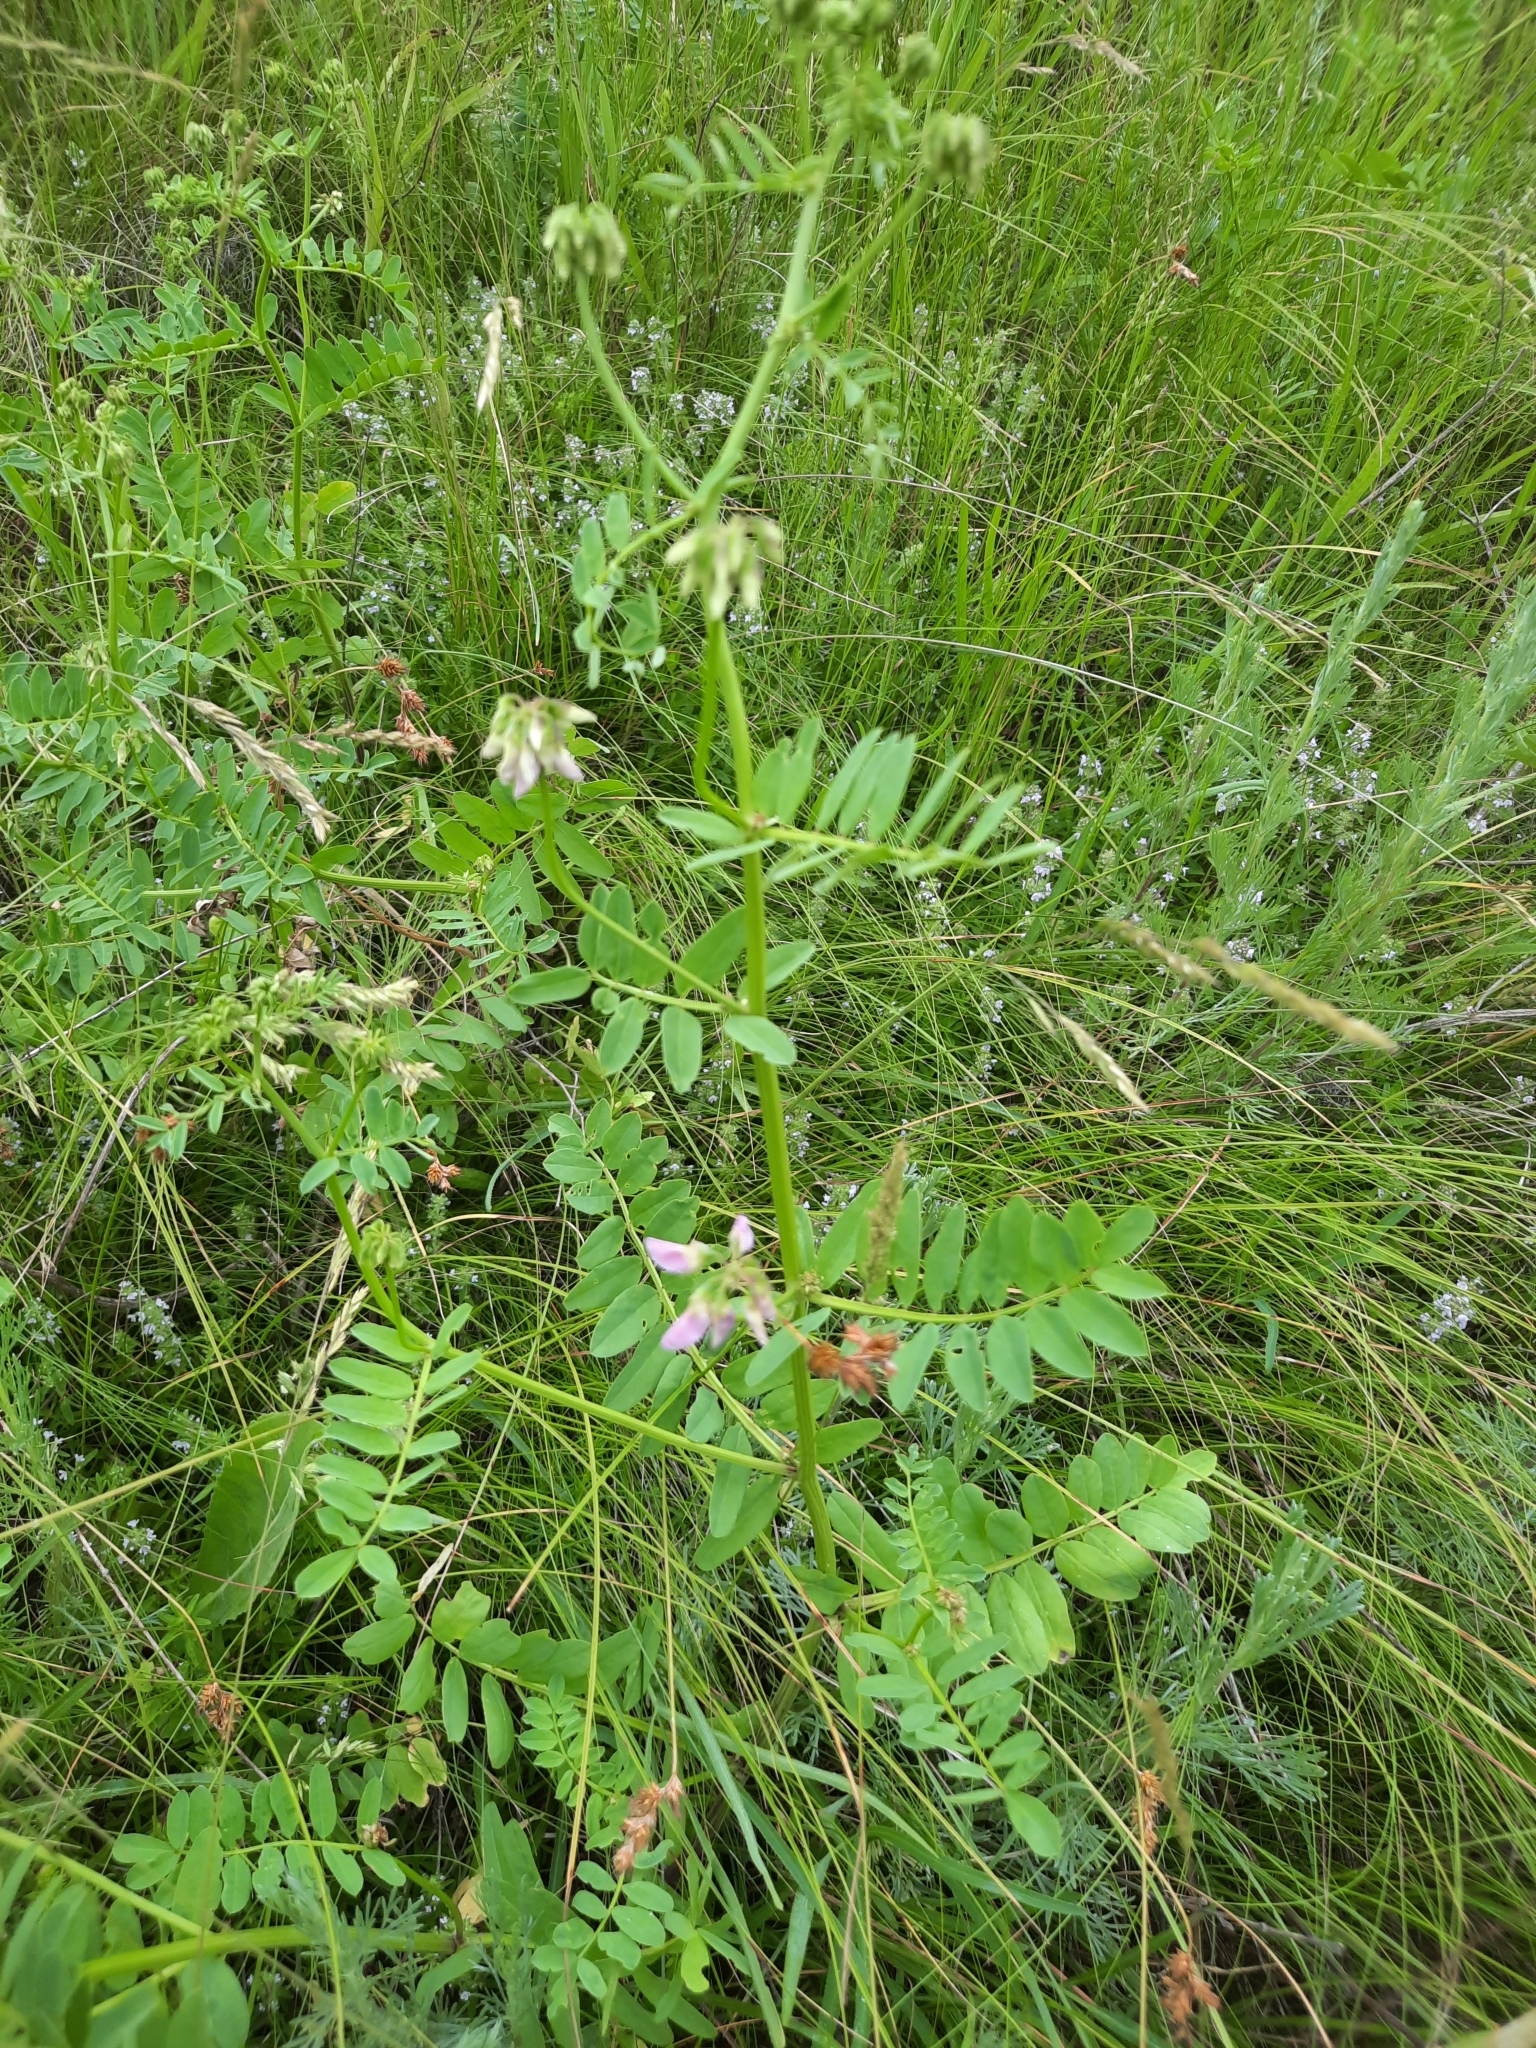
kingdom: Plantae
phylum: Tracheophyta
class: Magnoliopsida
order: Fabales
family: Fabaceae
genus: Coronilla
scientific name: Coronilla varia
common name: Crownvetch
